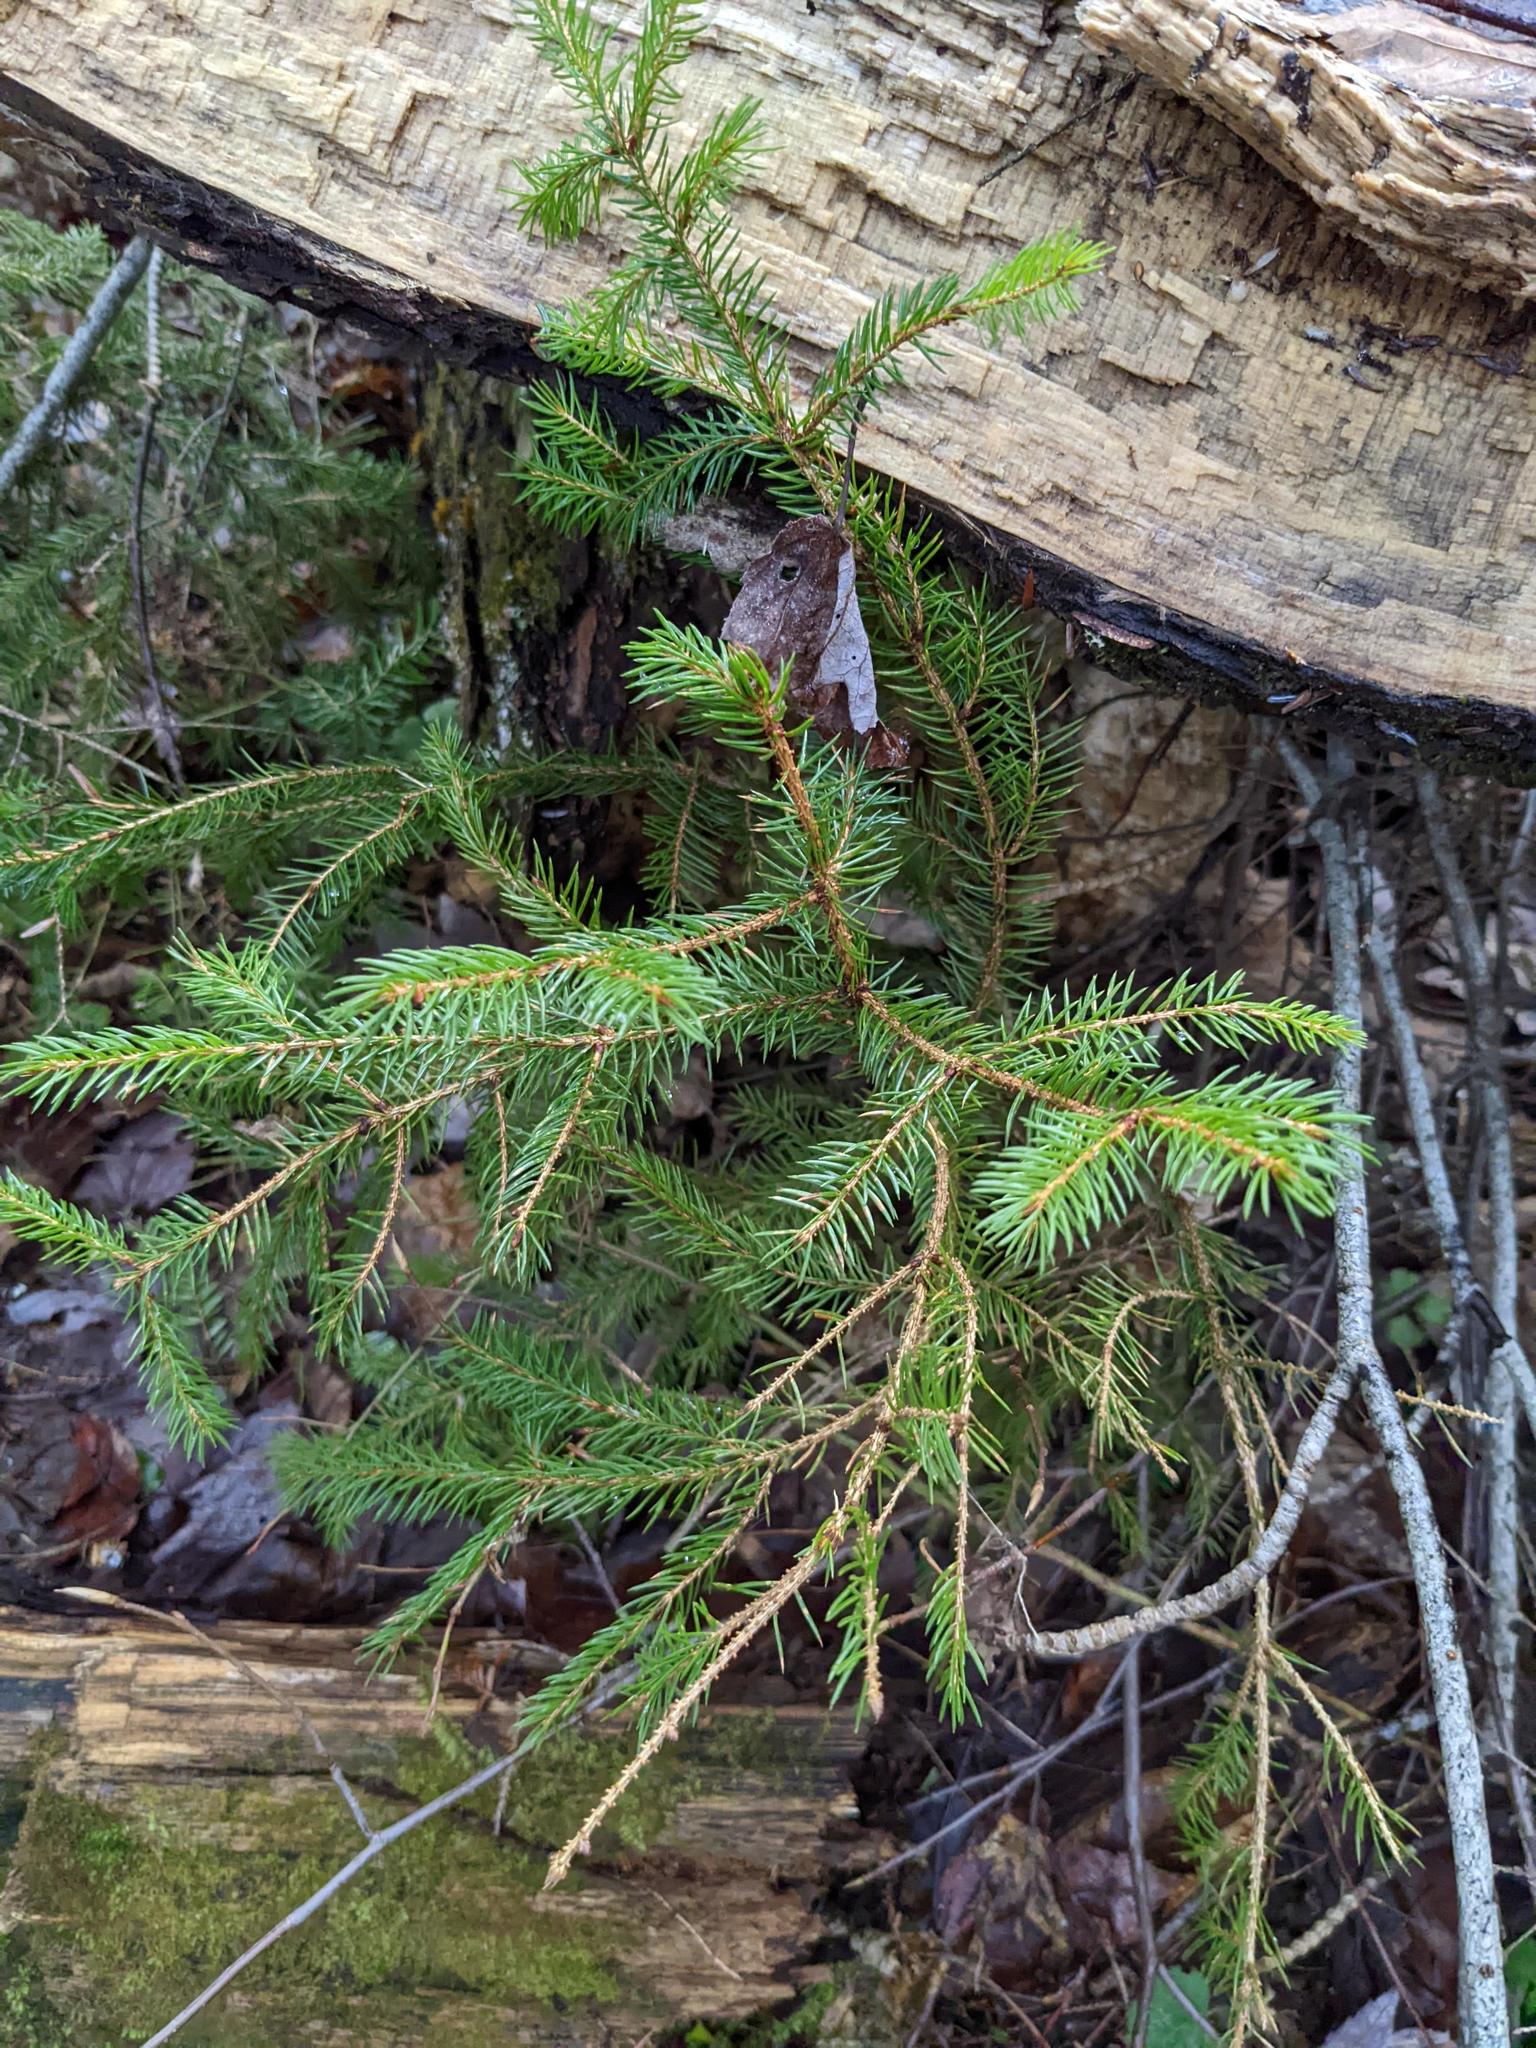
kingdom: Plantae
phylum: Tracheophyta
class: Pinopsida
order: Pinales
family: Pinaceae
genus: Picea
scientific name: Picea rubens
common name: Red spruce
